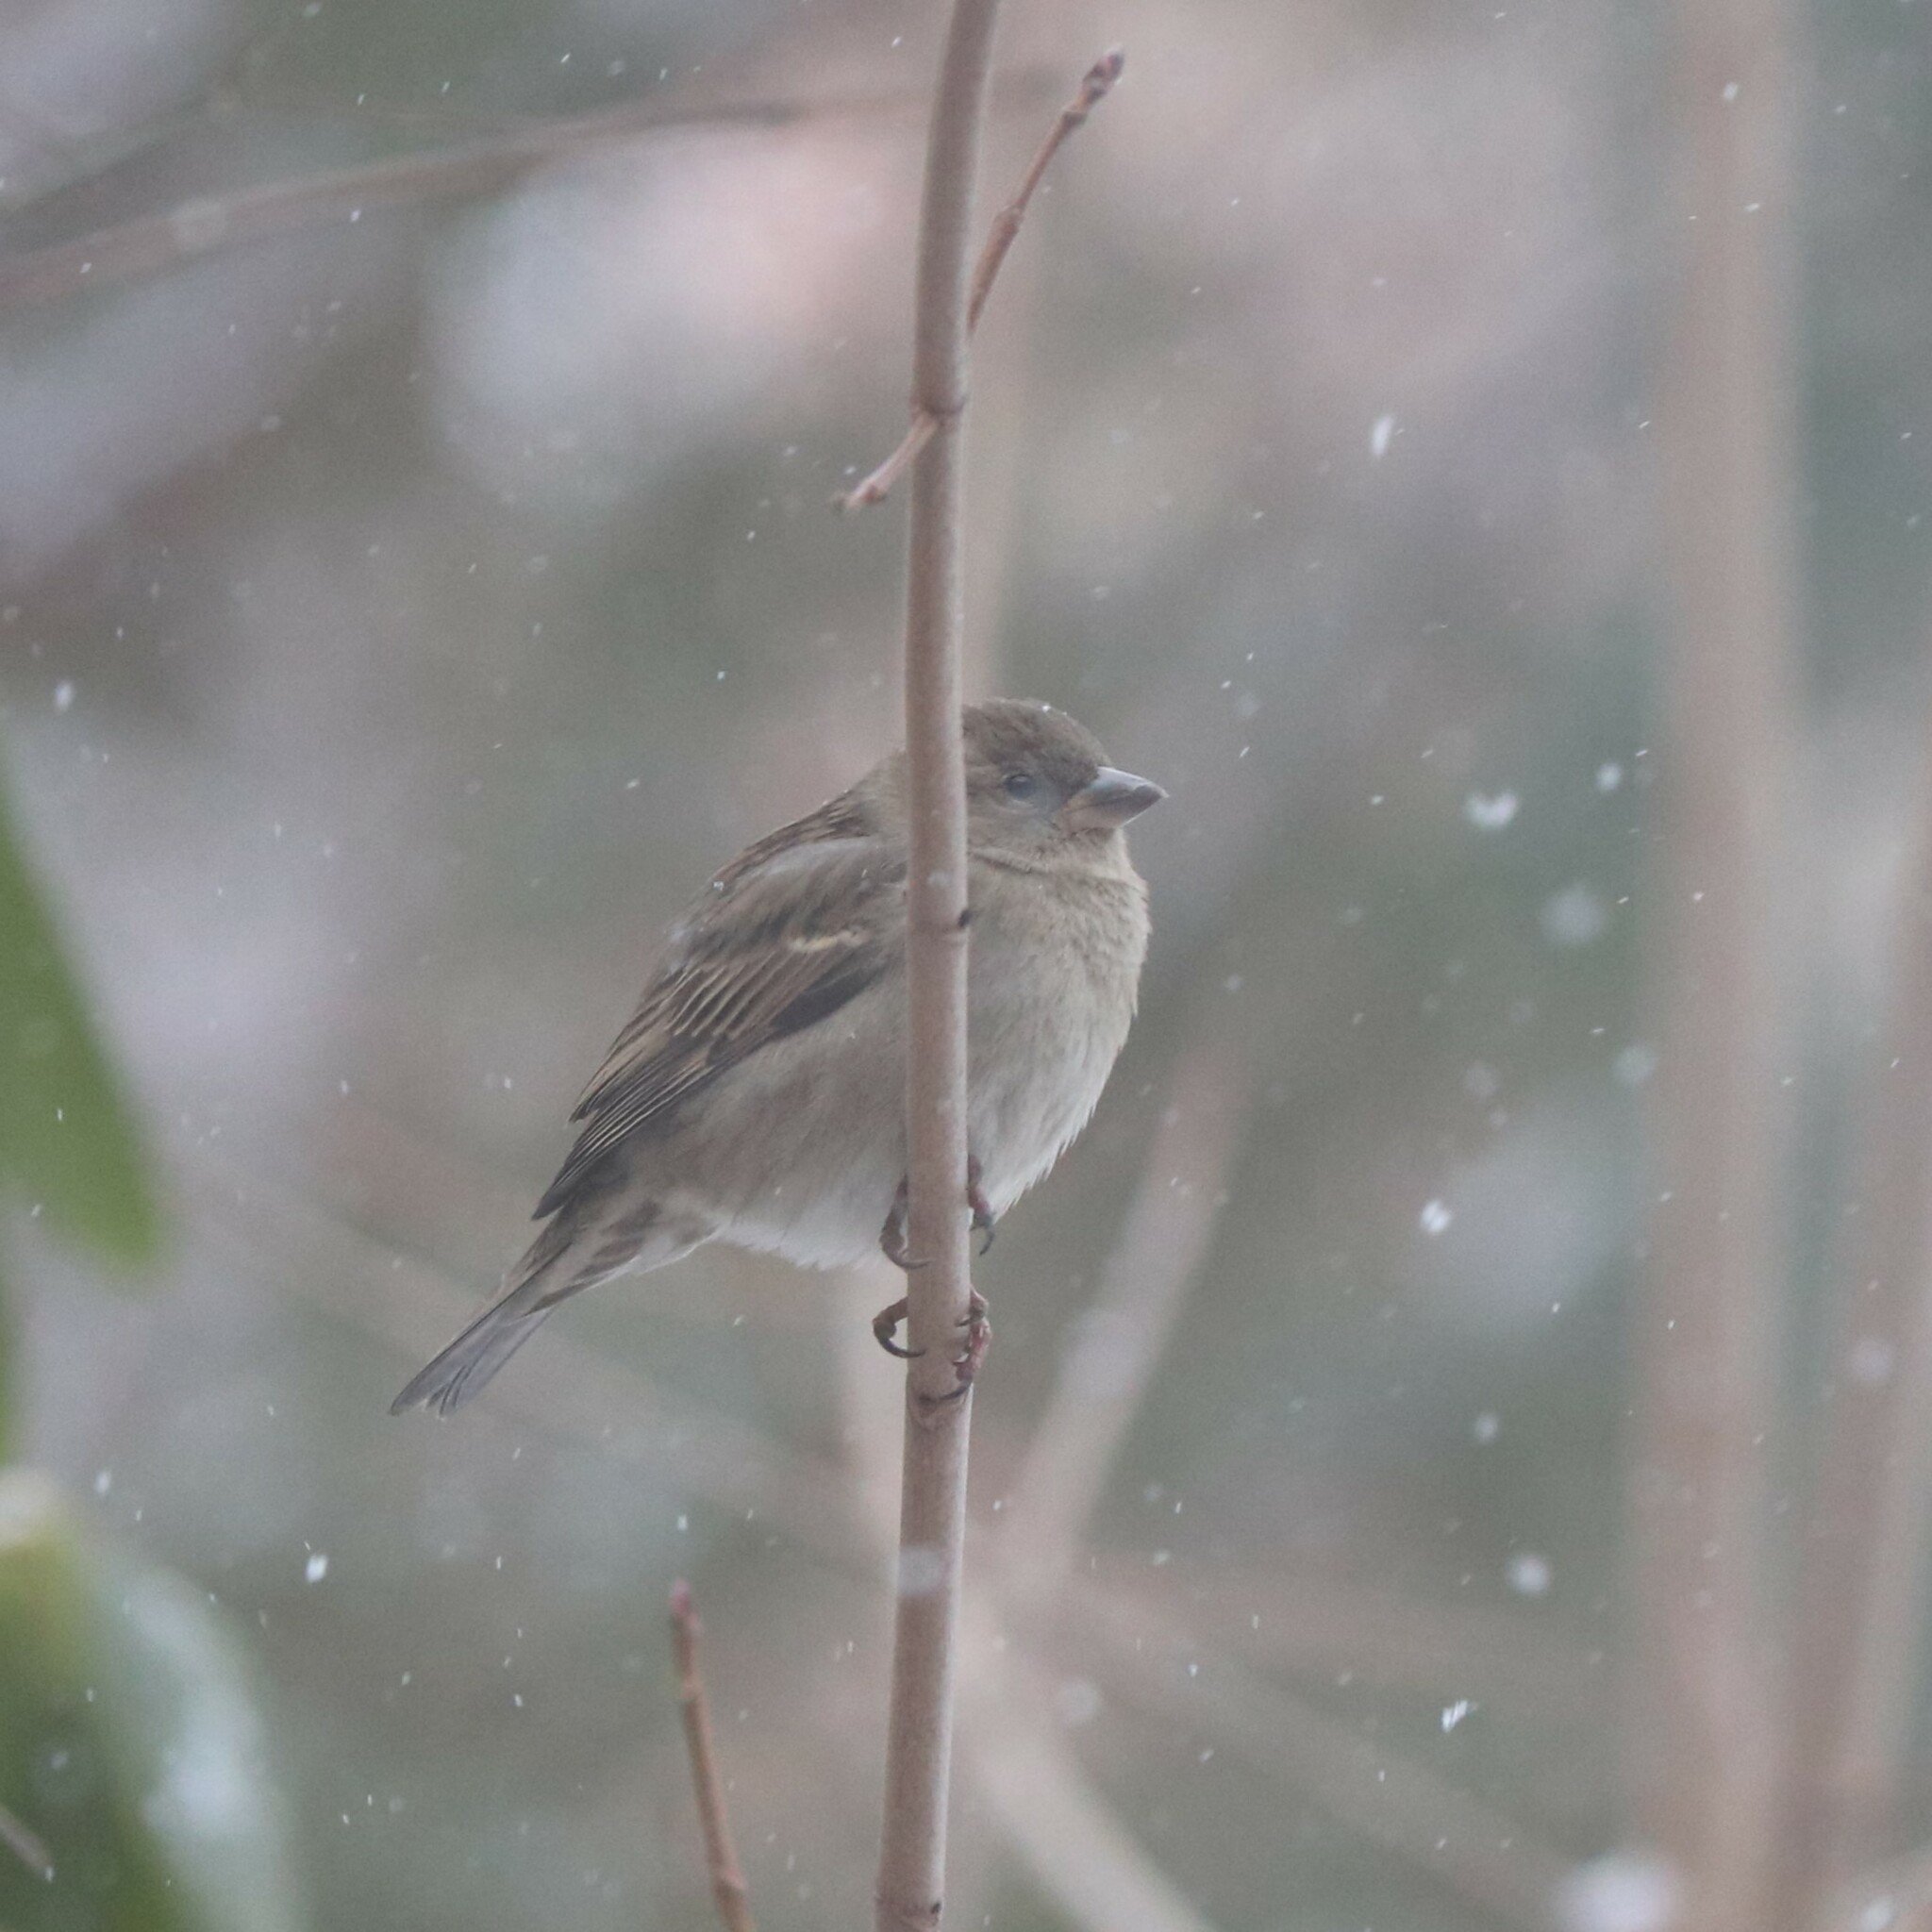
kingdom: Animalia
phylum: Chordata
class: Aves
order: Passeriformes
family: Passeridae
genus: Passer
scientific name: Passer domesticus
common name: House sparrow
